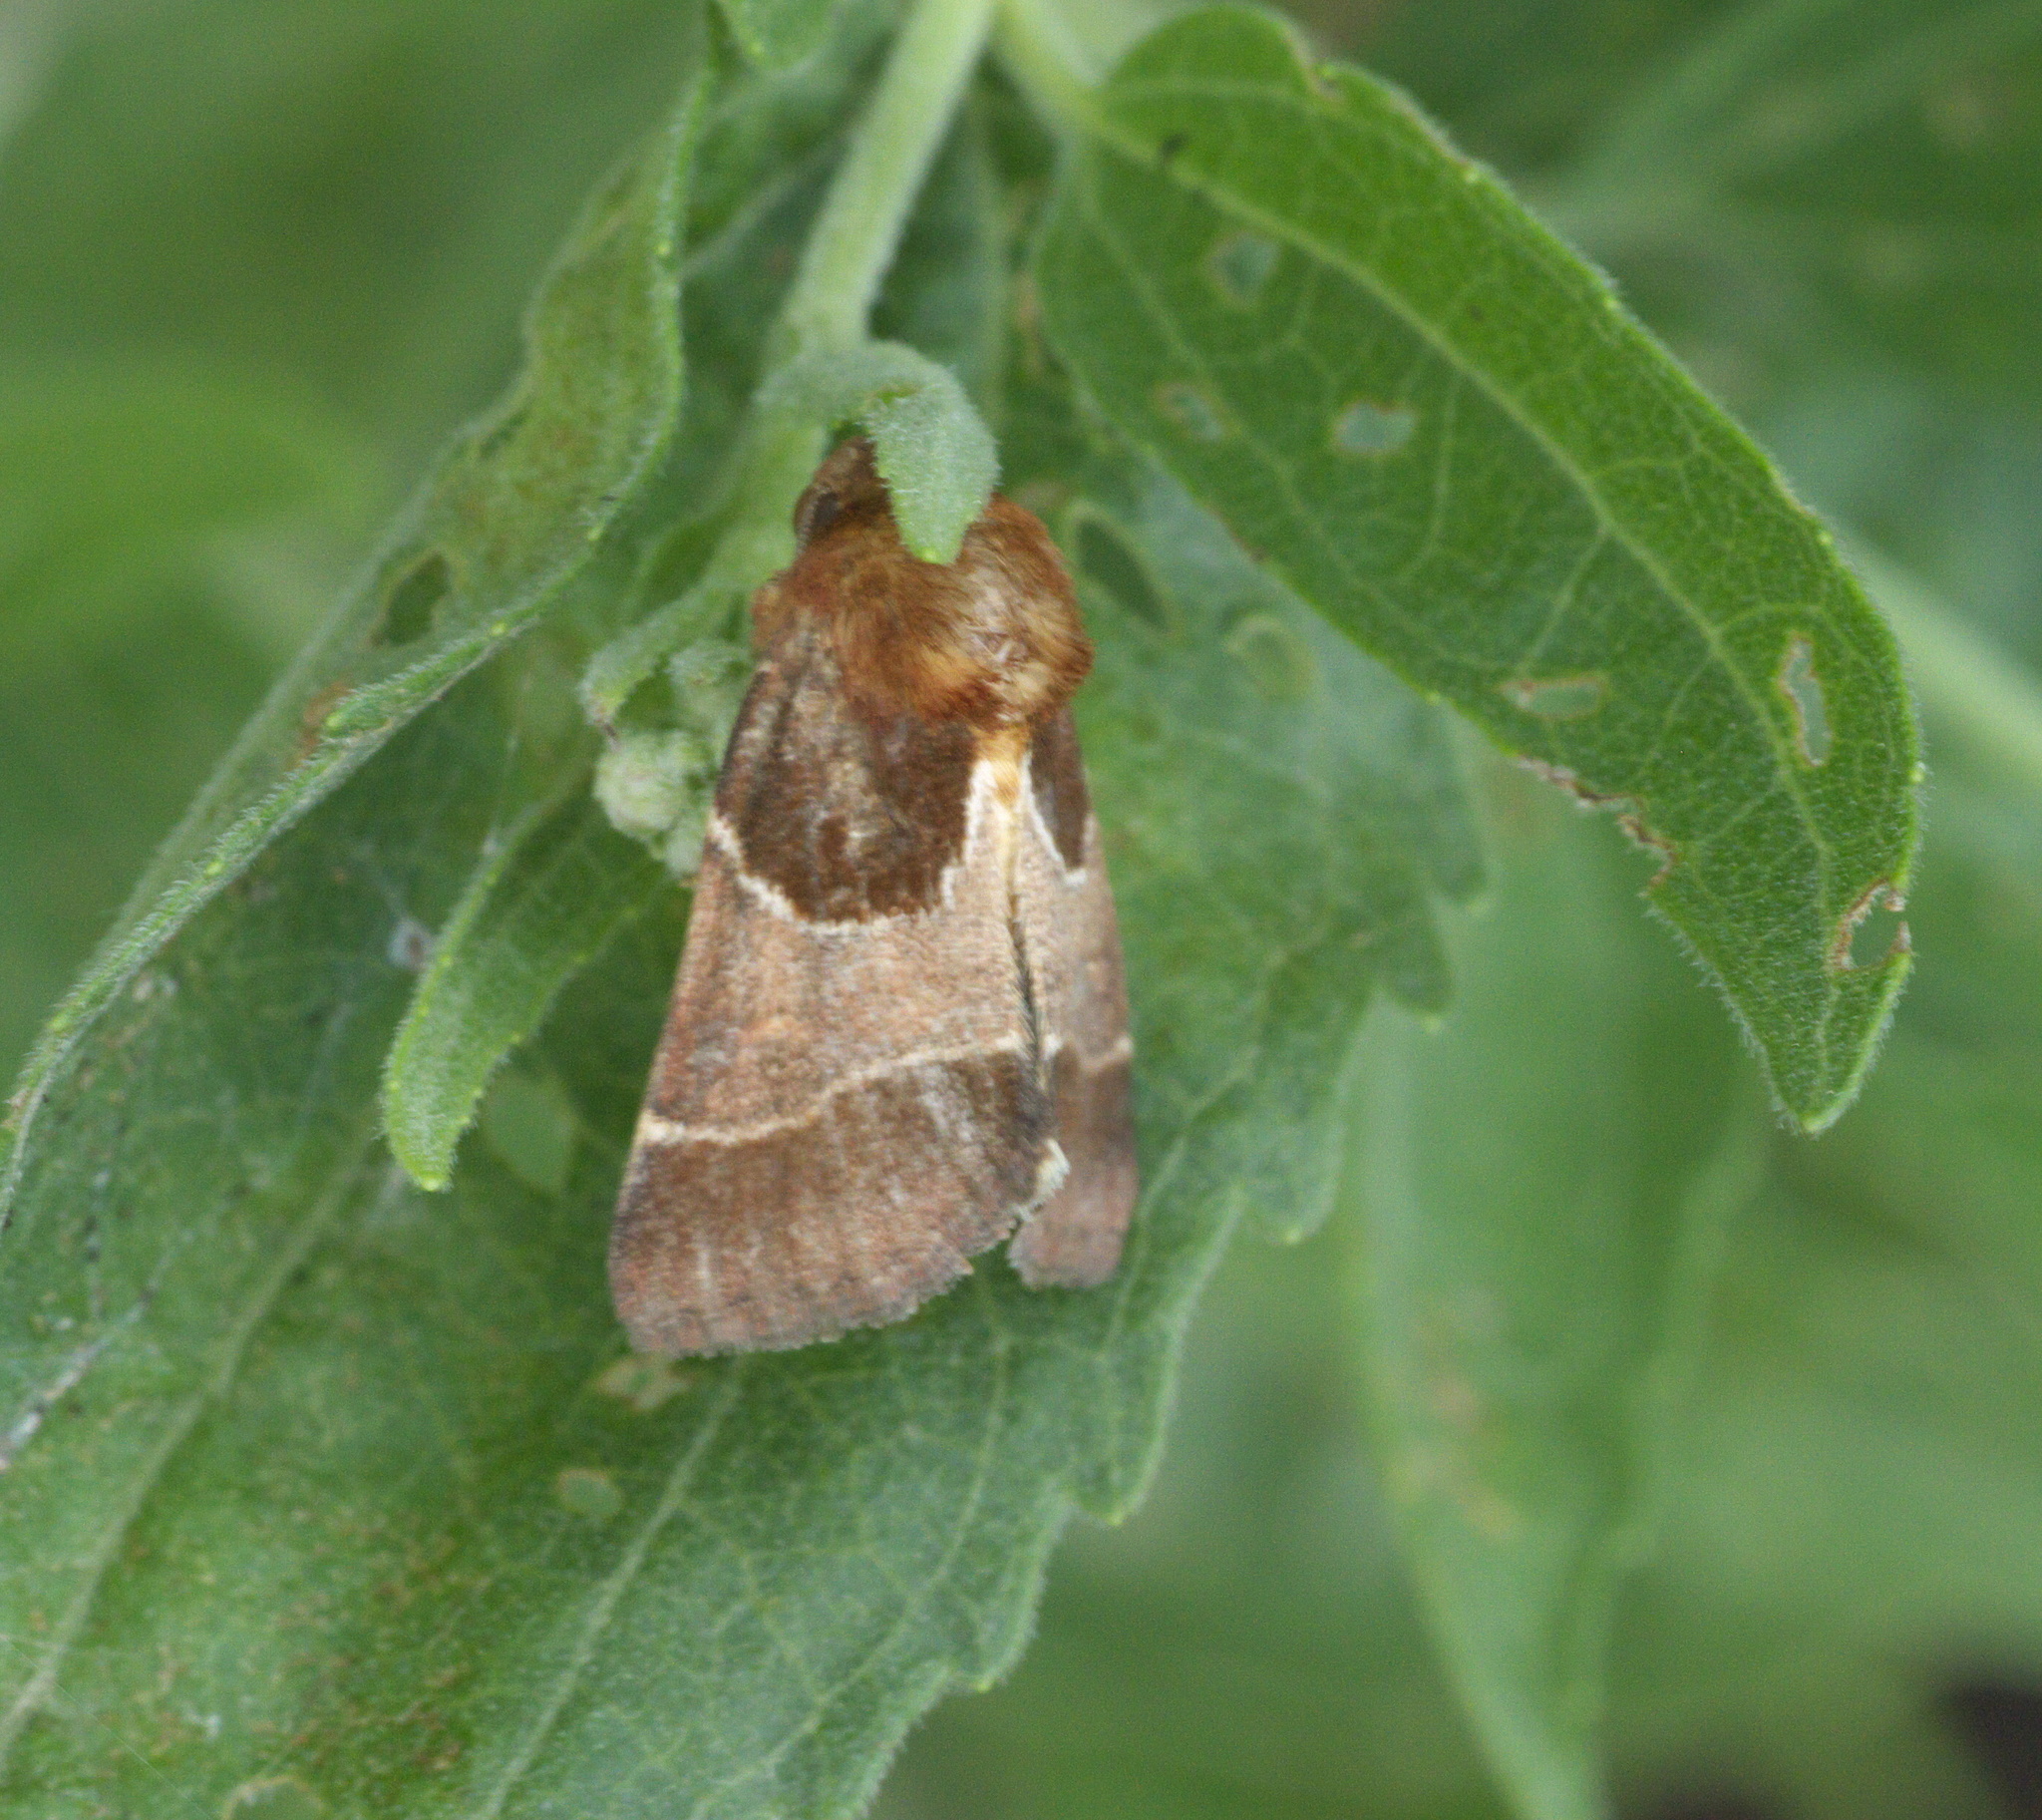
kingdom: Animalia
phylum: Arthropoda
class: Insecta
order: Lepidoptera
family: Noctuidae
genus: Schinia
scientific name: Schinia arcigera
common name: Arcigera flower moth
